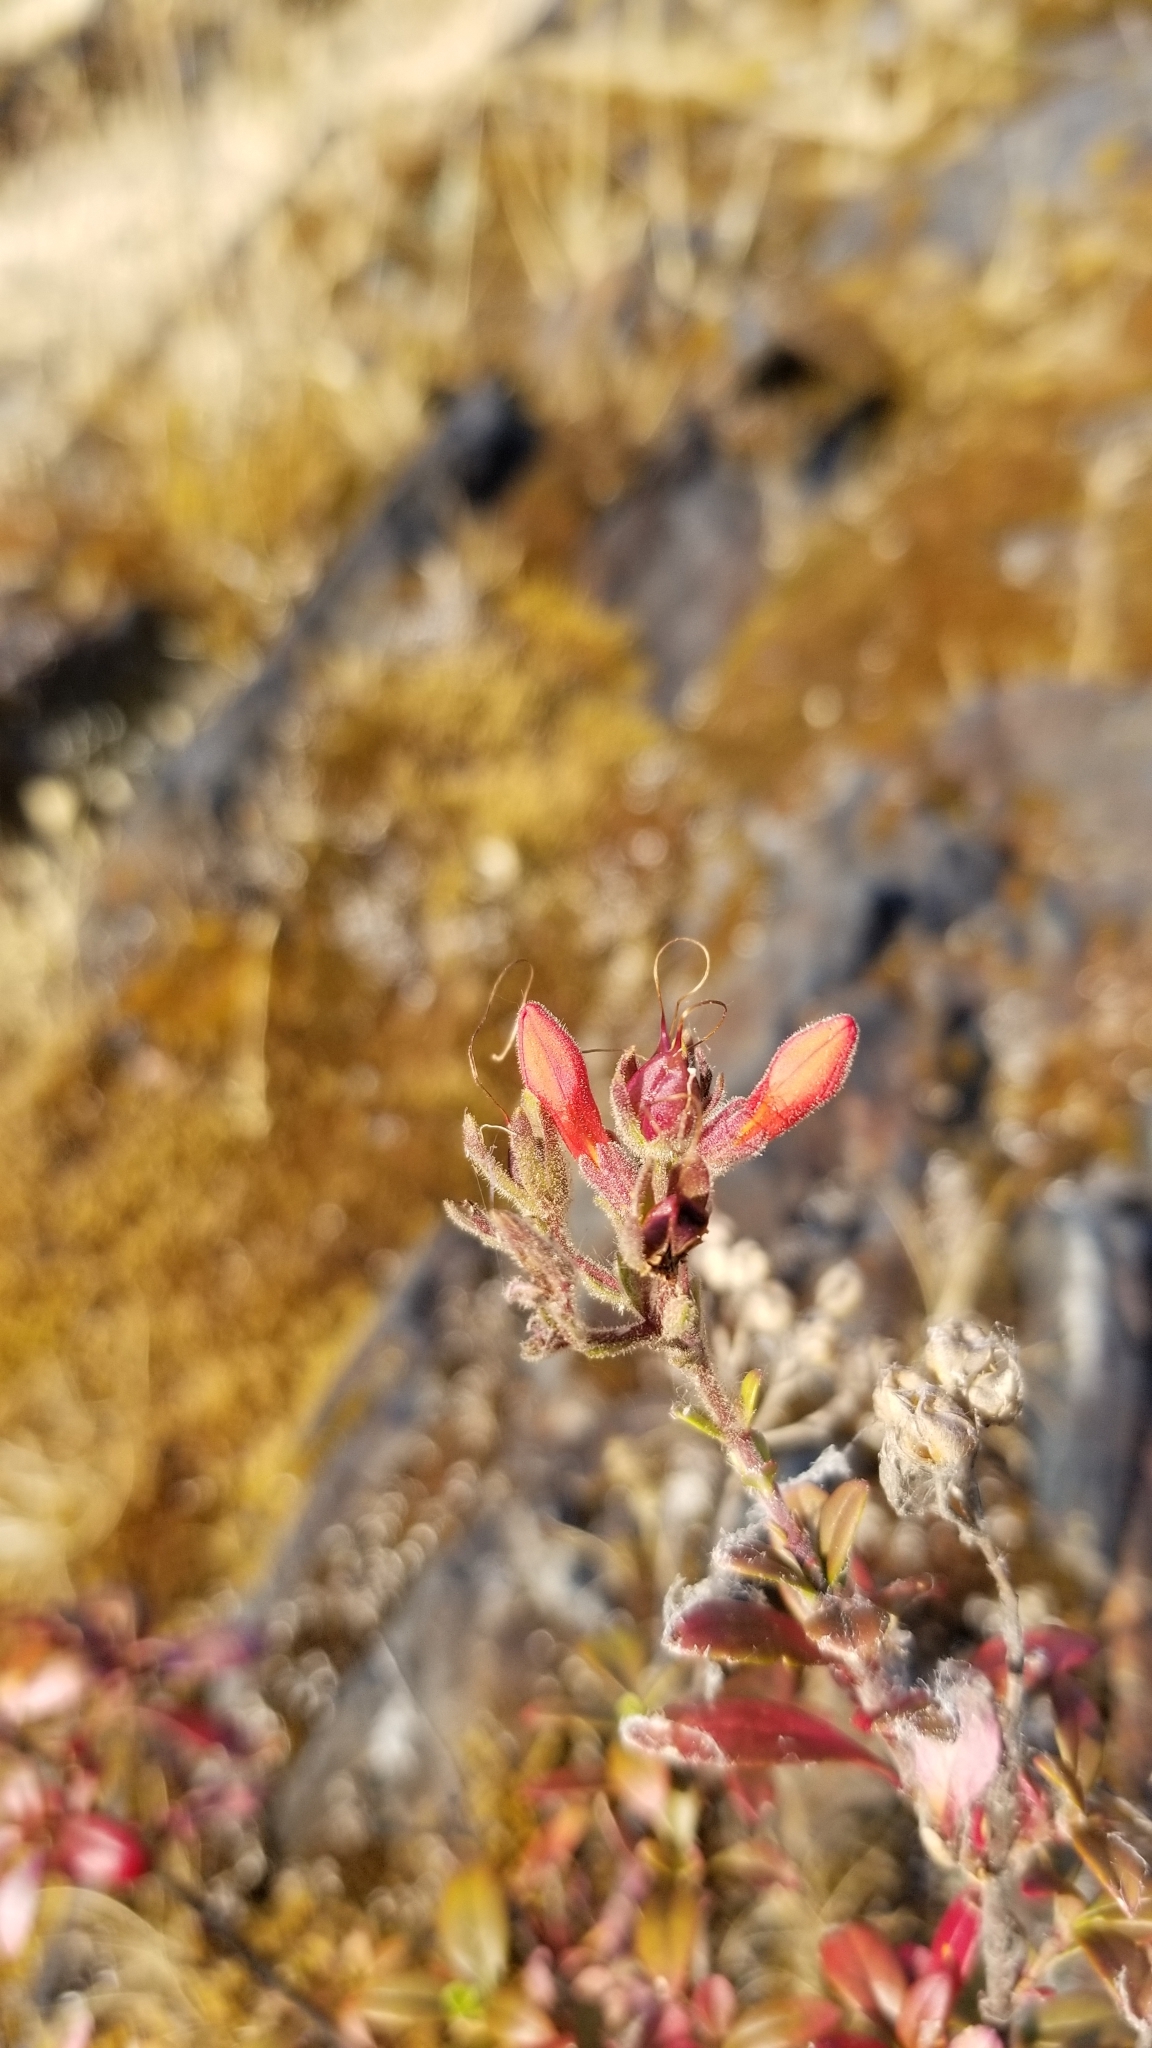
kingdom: Plantae
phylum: Tracheophyta
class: Magnoliopsida
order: Lamiales
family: Plantaginaceae
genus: Keckiella
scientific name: Keckiella corymbosa
